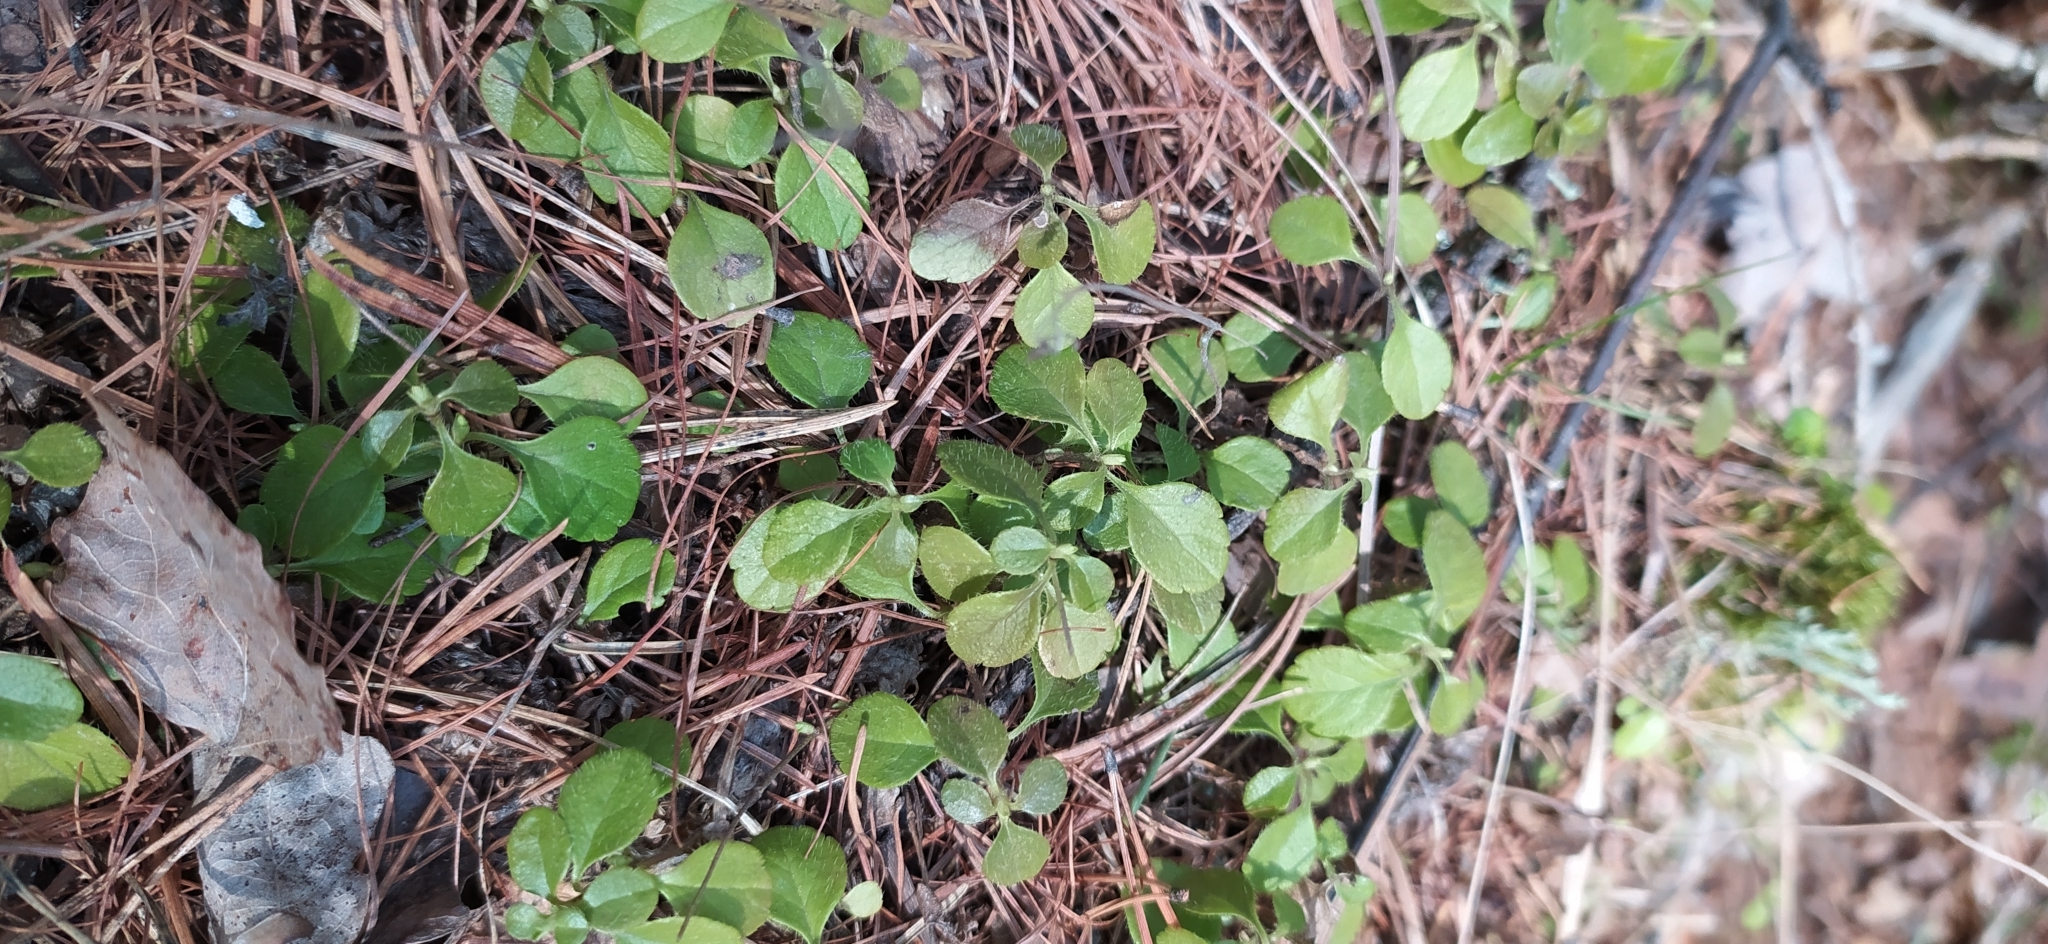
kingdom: Plantae
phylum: Tracheophyta
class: Magnoliopsida
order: Dipsacales
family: Caprifoliaceae
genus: Linnaea
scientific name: Linnaea borealis
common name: Twinflower
